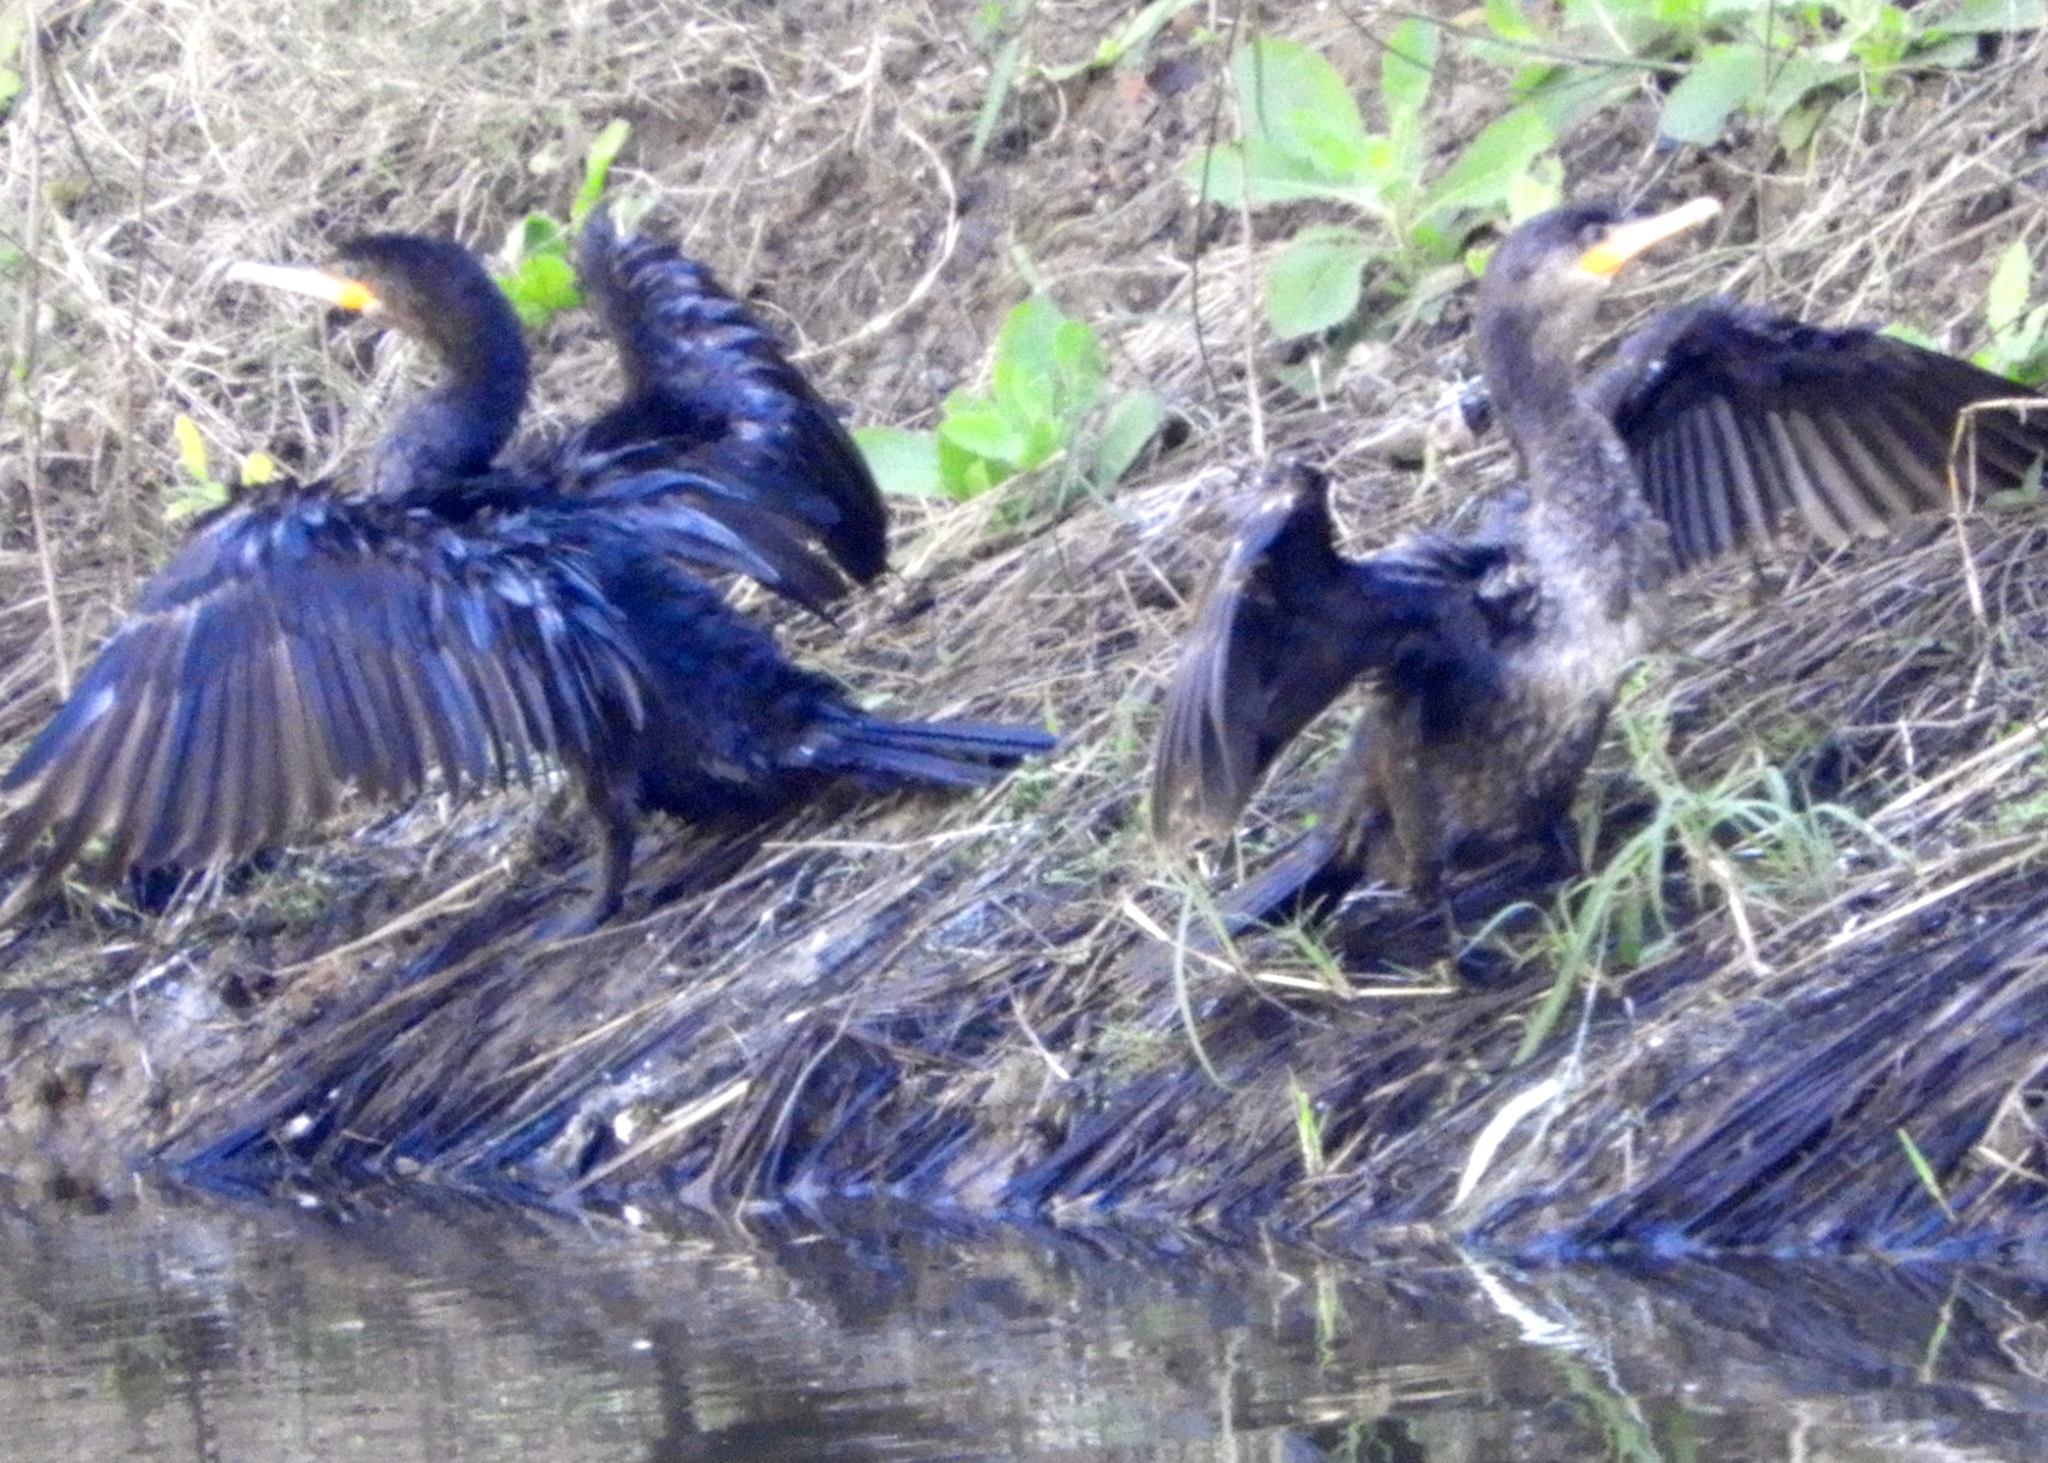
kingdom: Animalia
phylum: Chordata
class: Aves
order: Suliformes
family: Phalacrocoracidae
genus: Phalacrocorax
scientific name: Phalacrocorax brasilianus
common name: Neotropic cormorant
